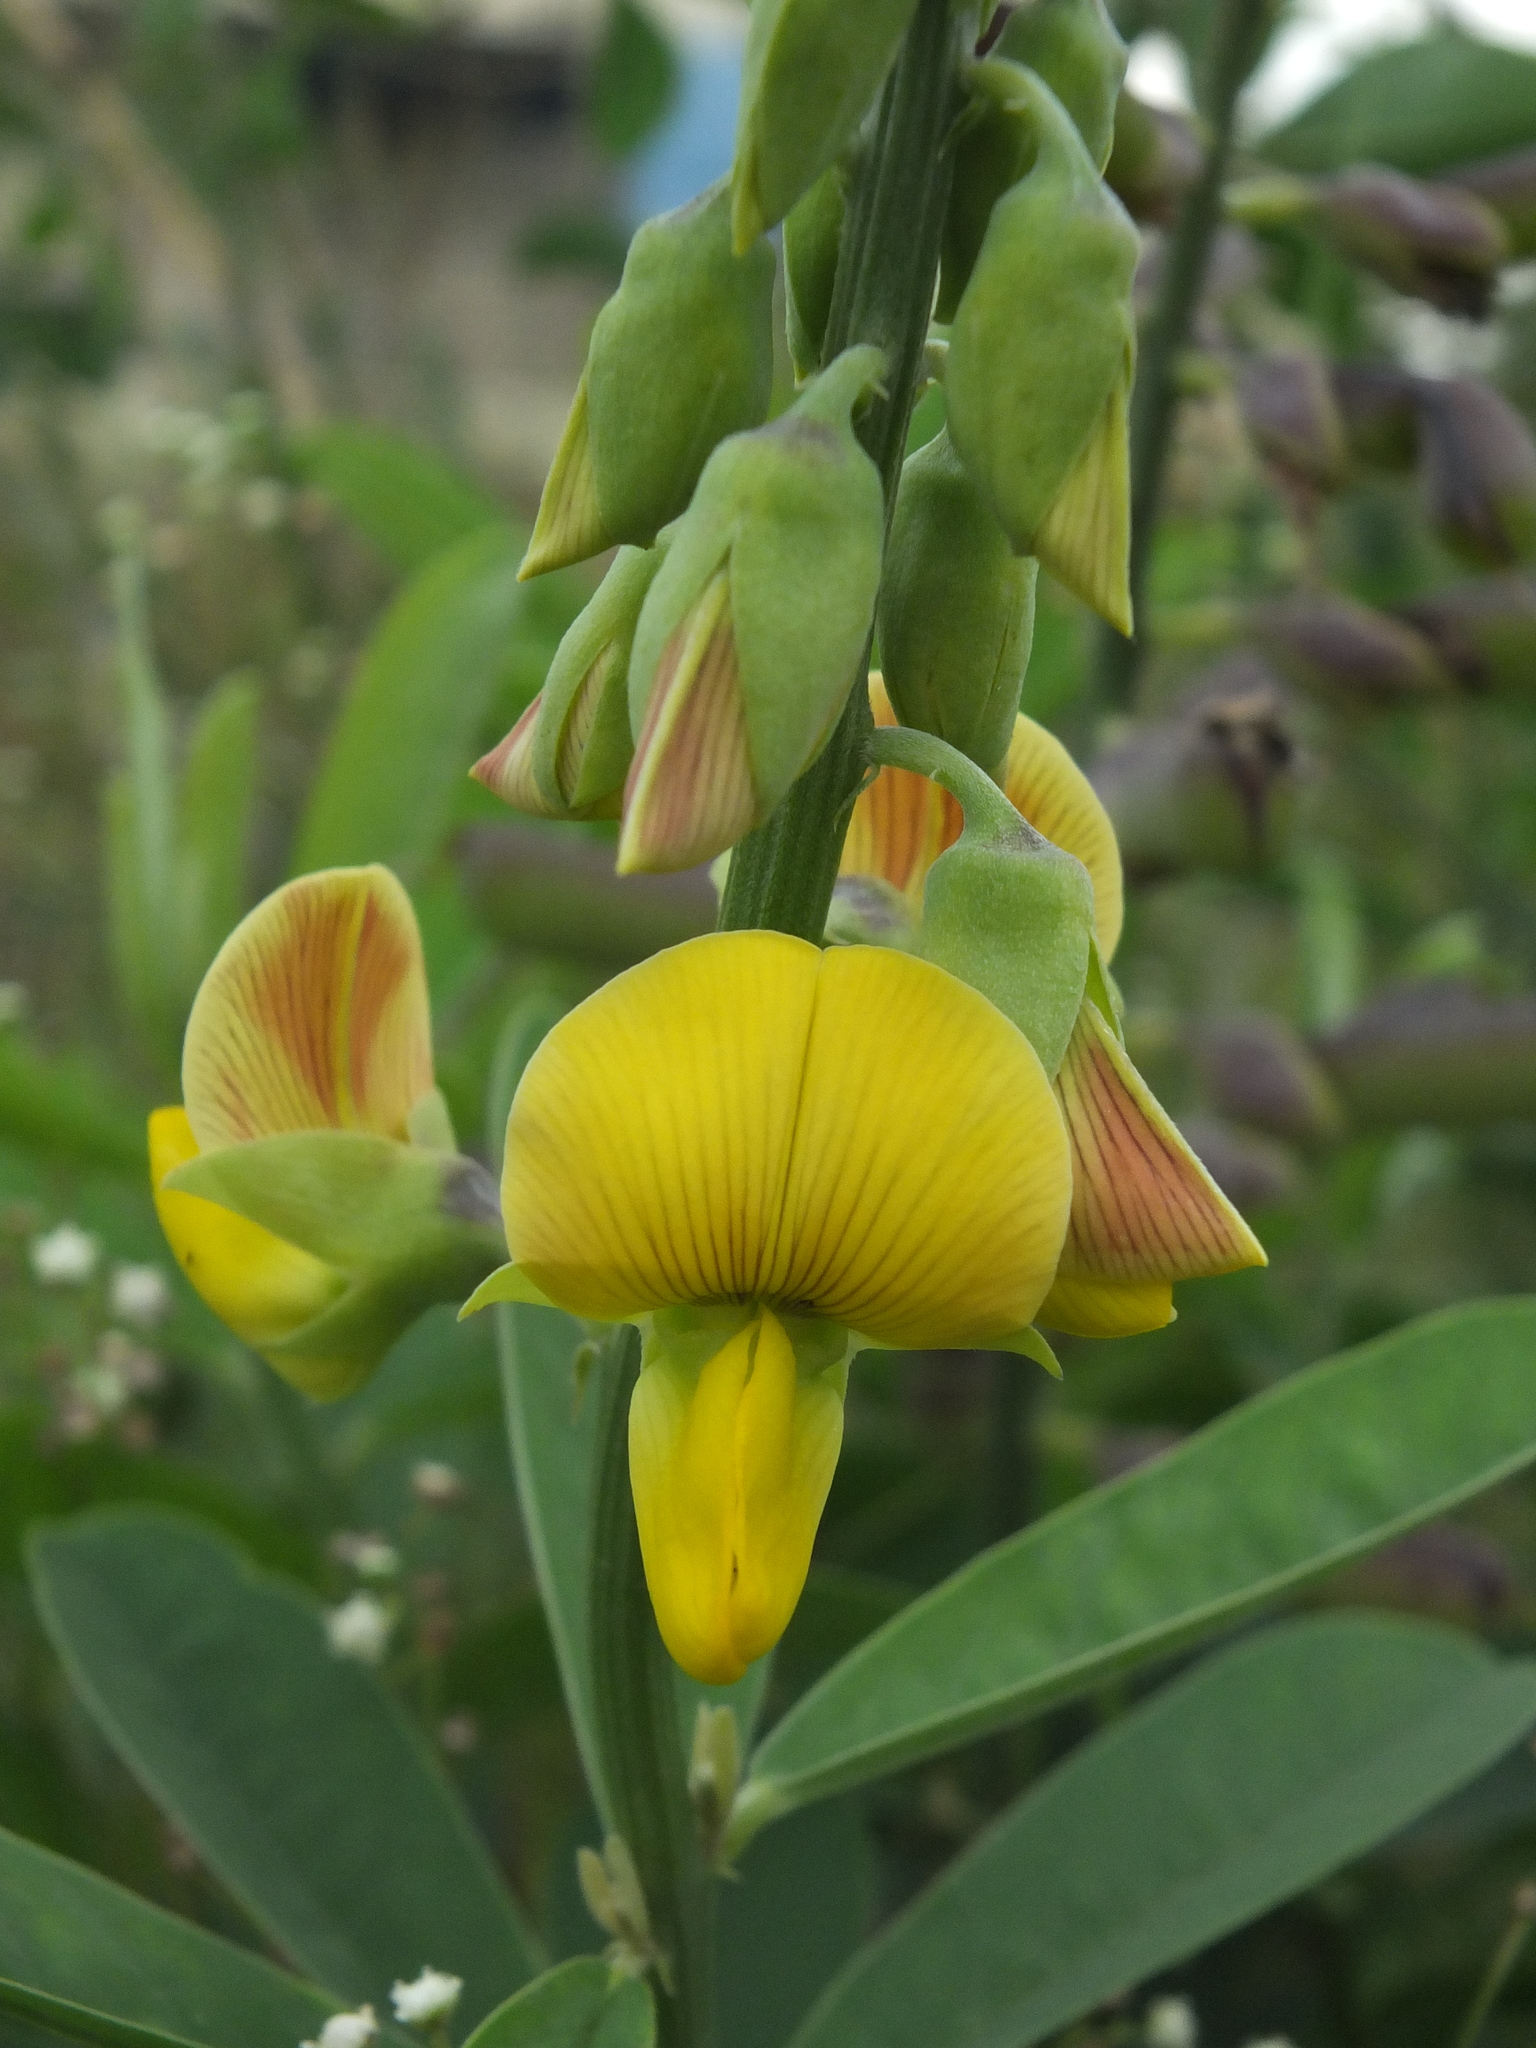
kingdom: Plantae
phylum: Tracheophyta
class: Magnoliopsida
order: Fabales
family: Fabaceae
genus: Crotalaria
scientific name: Crotalaria retusa
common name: Rattleweed
